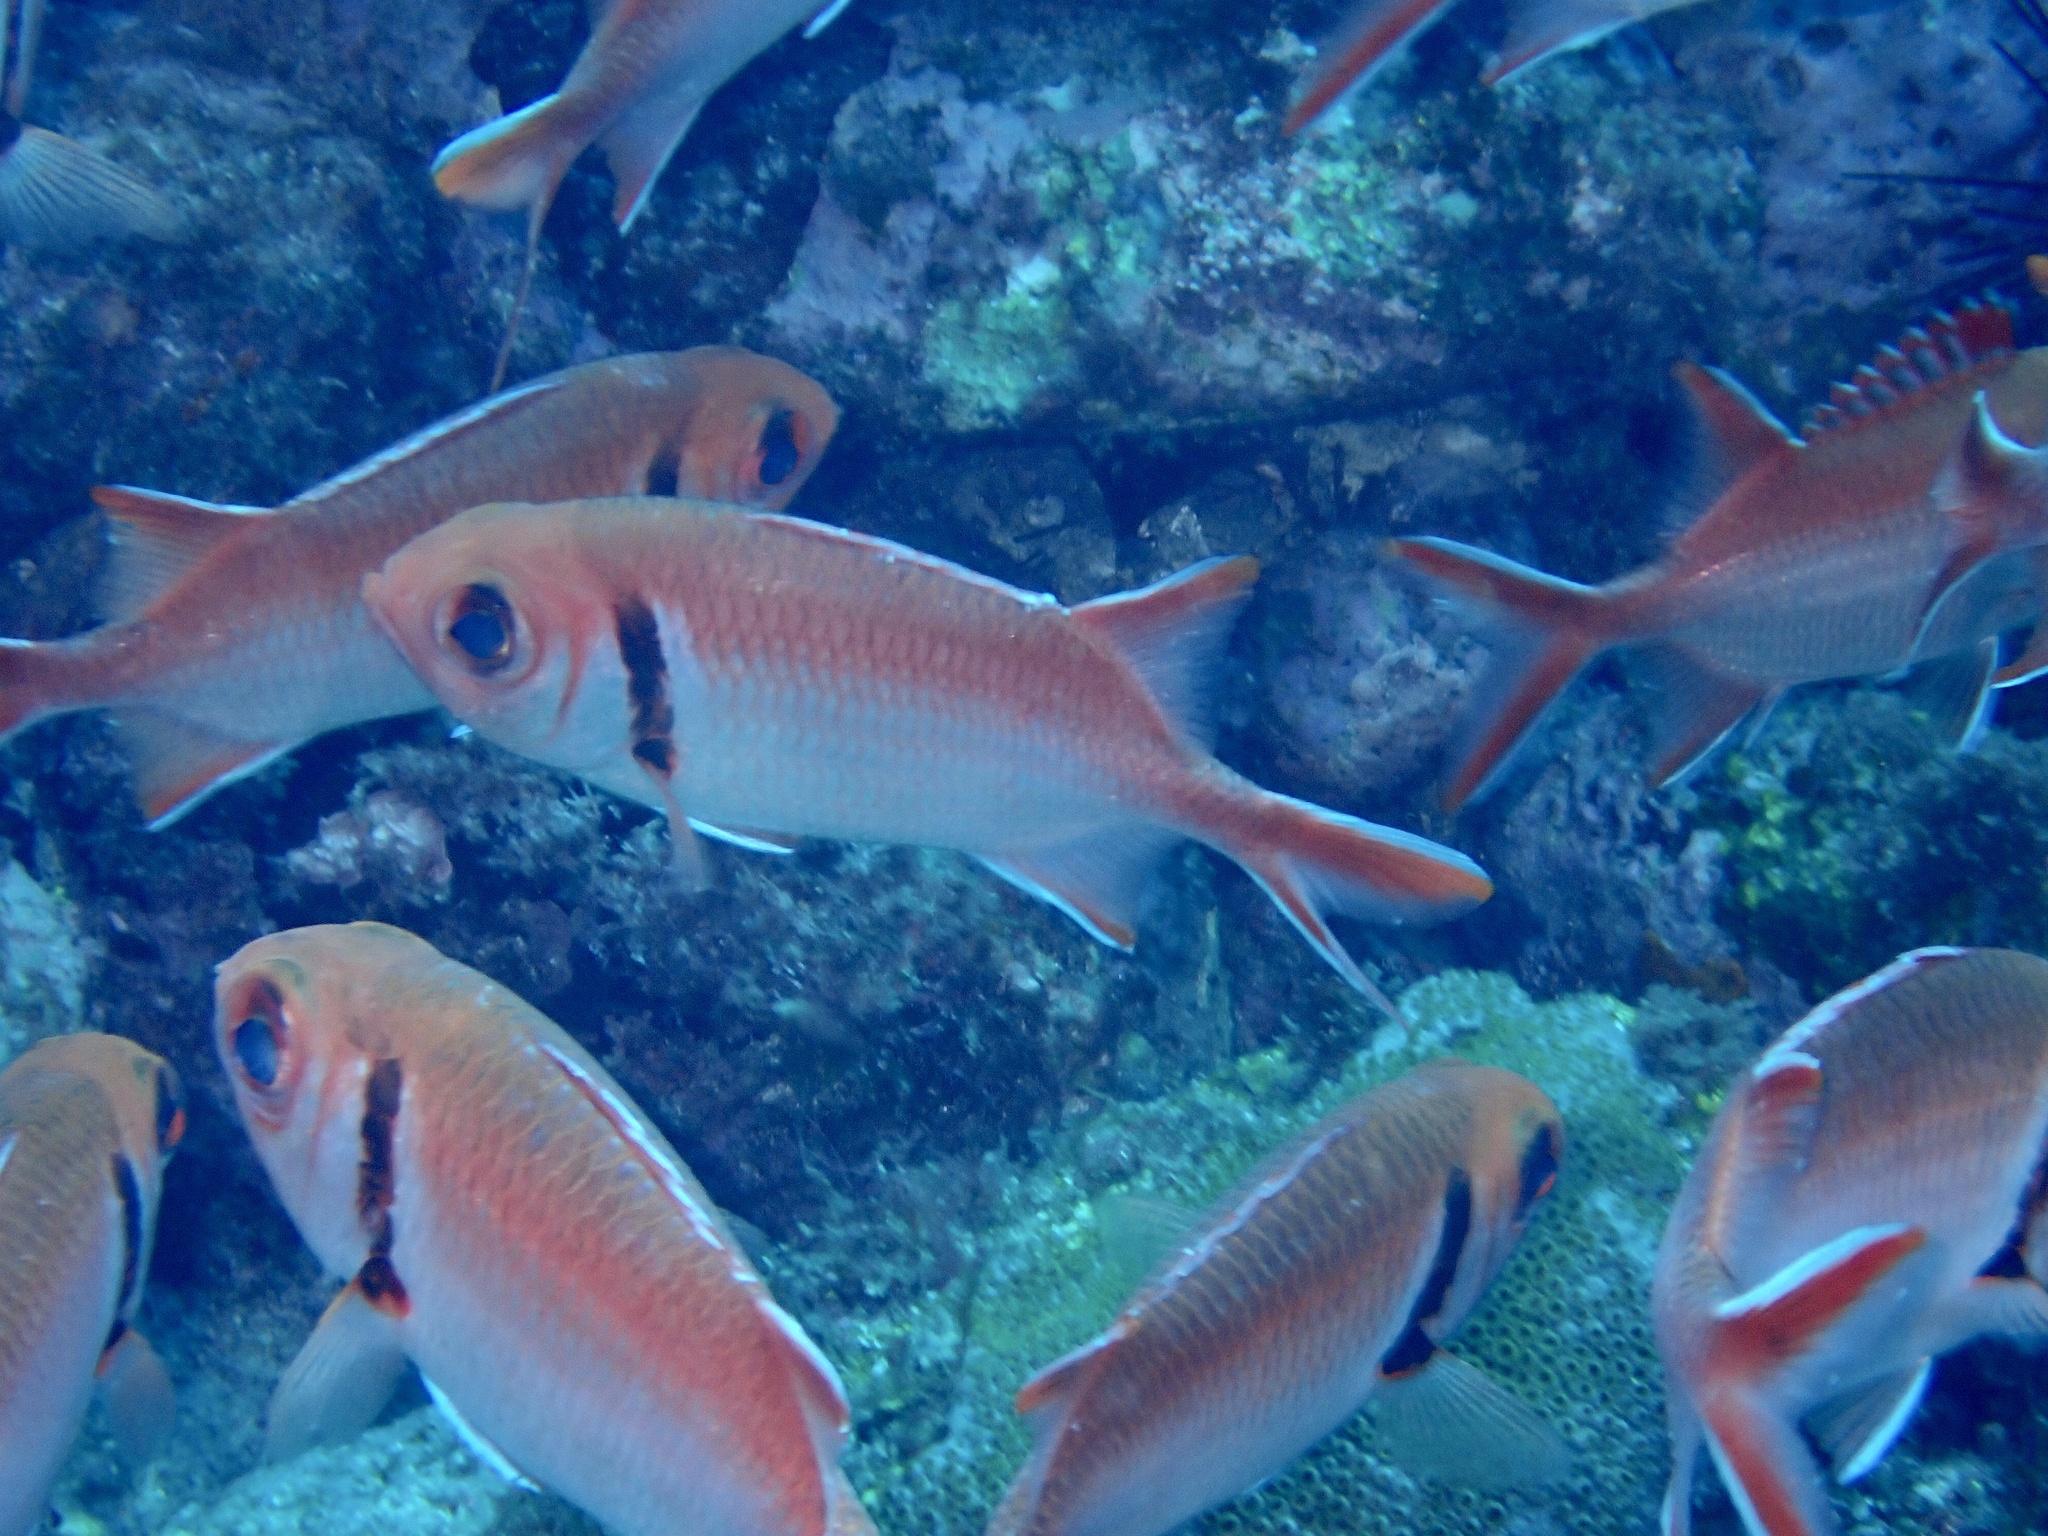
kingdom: Animalia
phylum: Chordata
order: Beryciformes
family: Holocentridae
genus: Myripristis
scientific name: Myripristis jacobus
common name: Blackbar soldierfish
